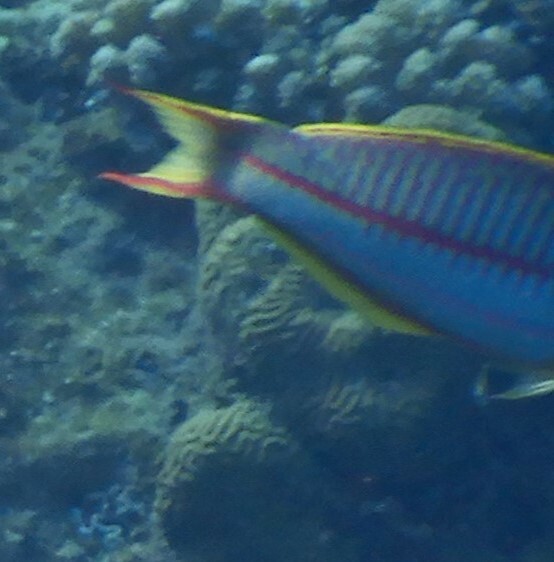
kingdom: Animalia
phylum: Chordata
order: Perciformes
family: Labridae
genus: Thalassoma
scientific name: Thalassoma rueppellii
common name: Klunzinger's wrasse
